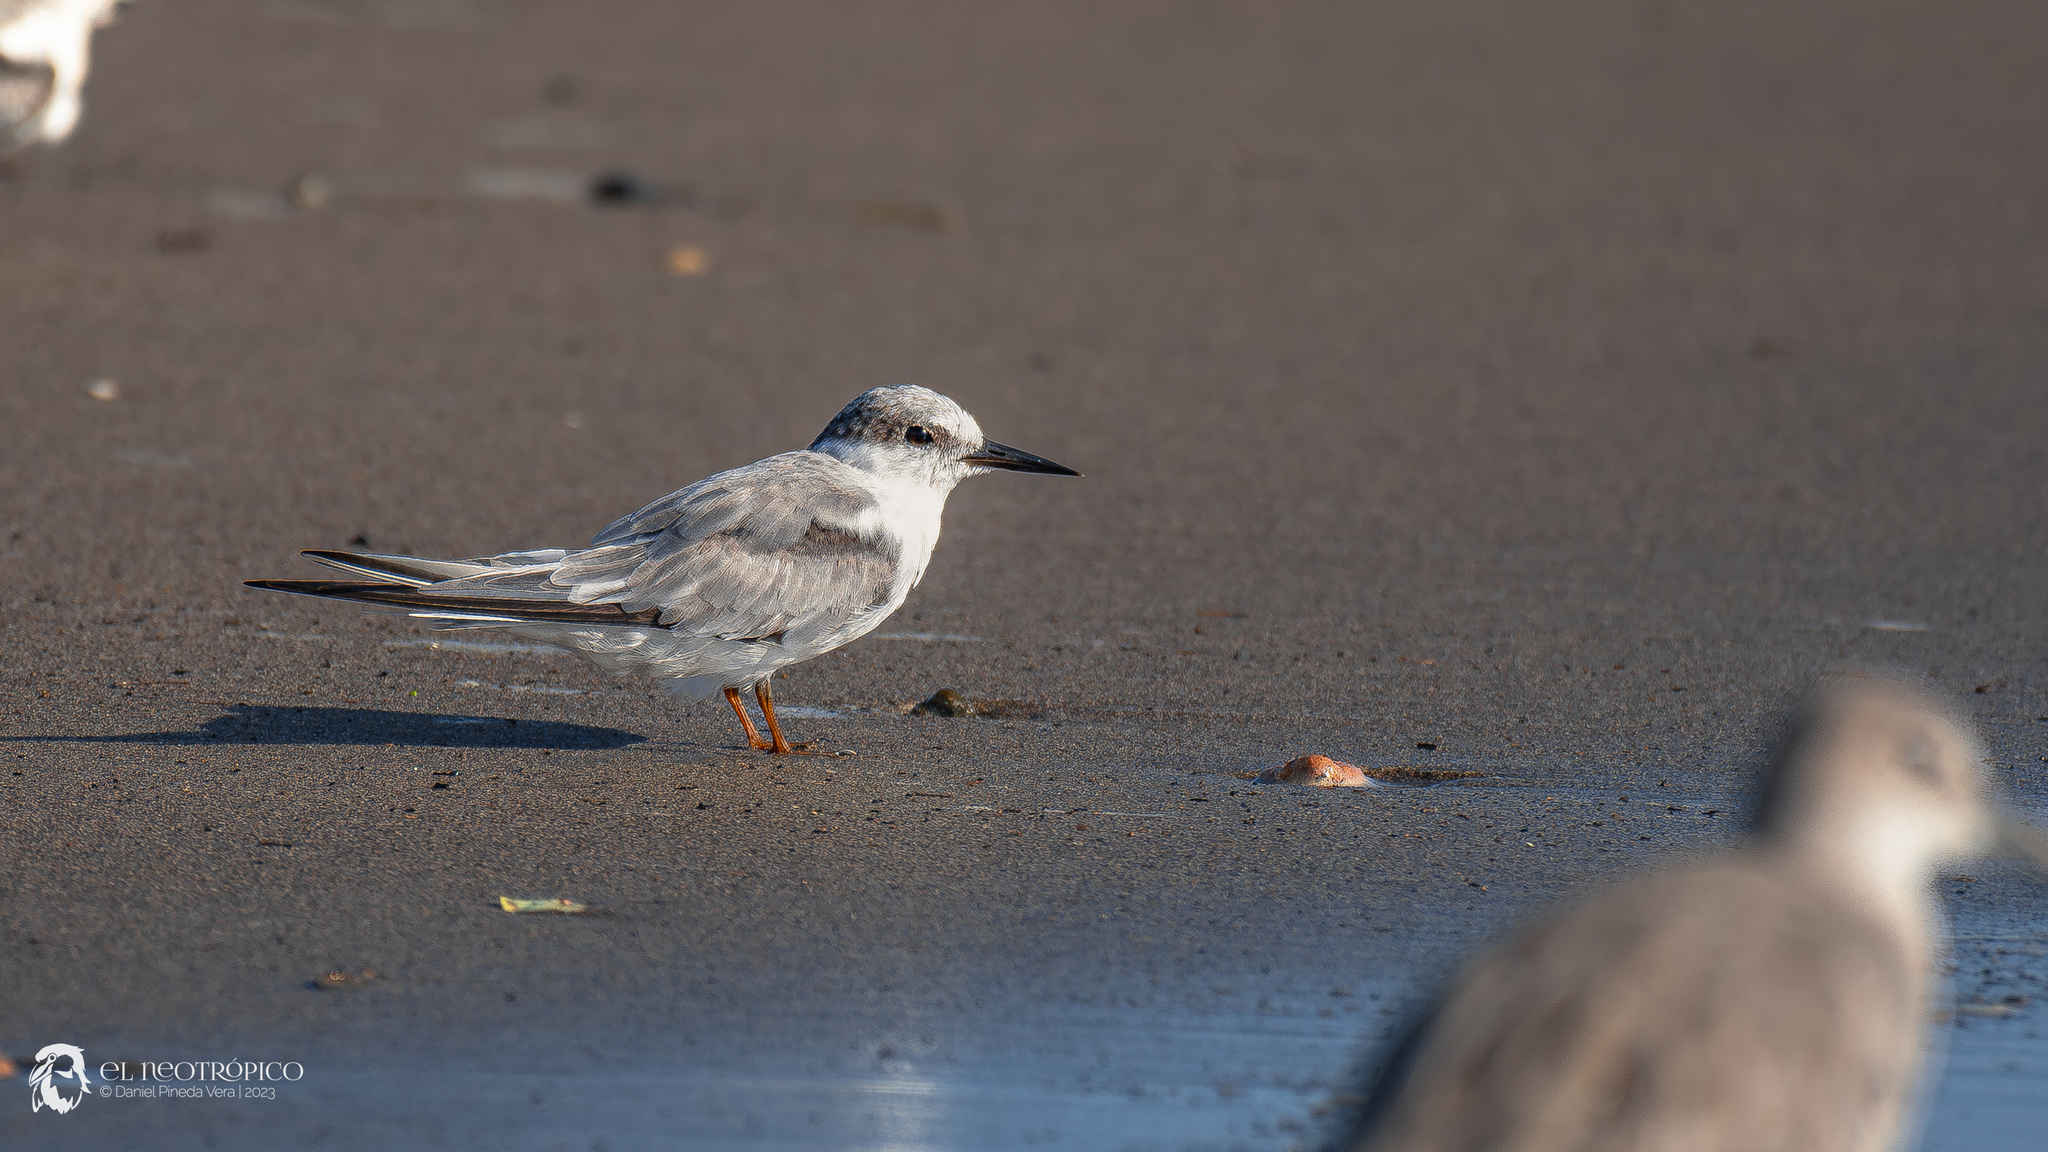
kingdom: Animalia
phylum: Chordata
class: Aves
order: Charadriiformes
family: Laridae
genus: Sternula
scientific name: Sternula antillarum
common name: Least tern
